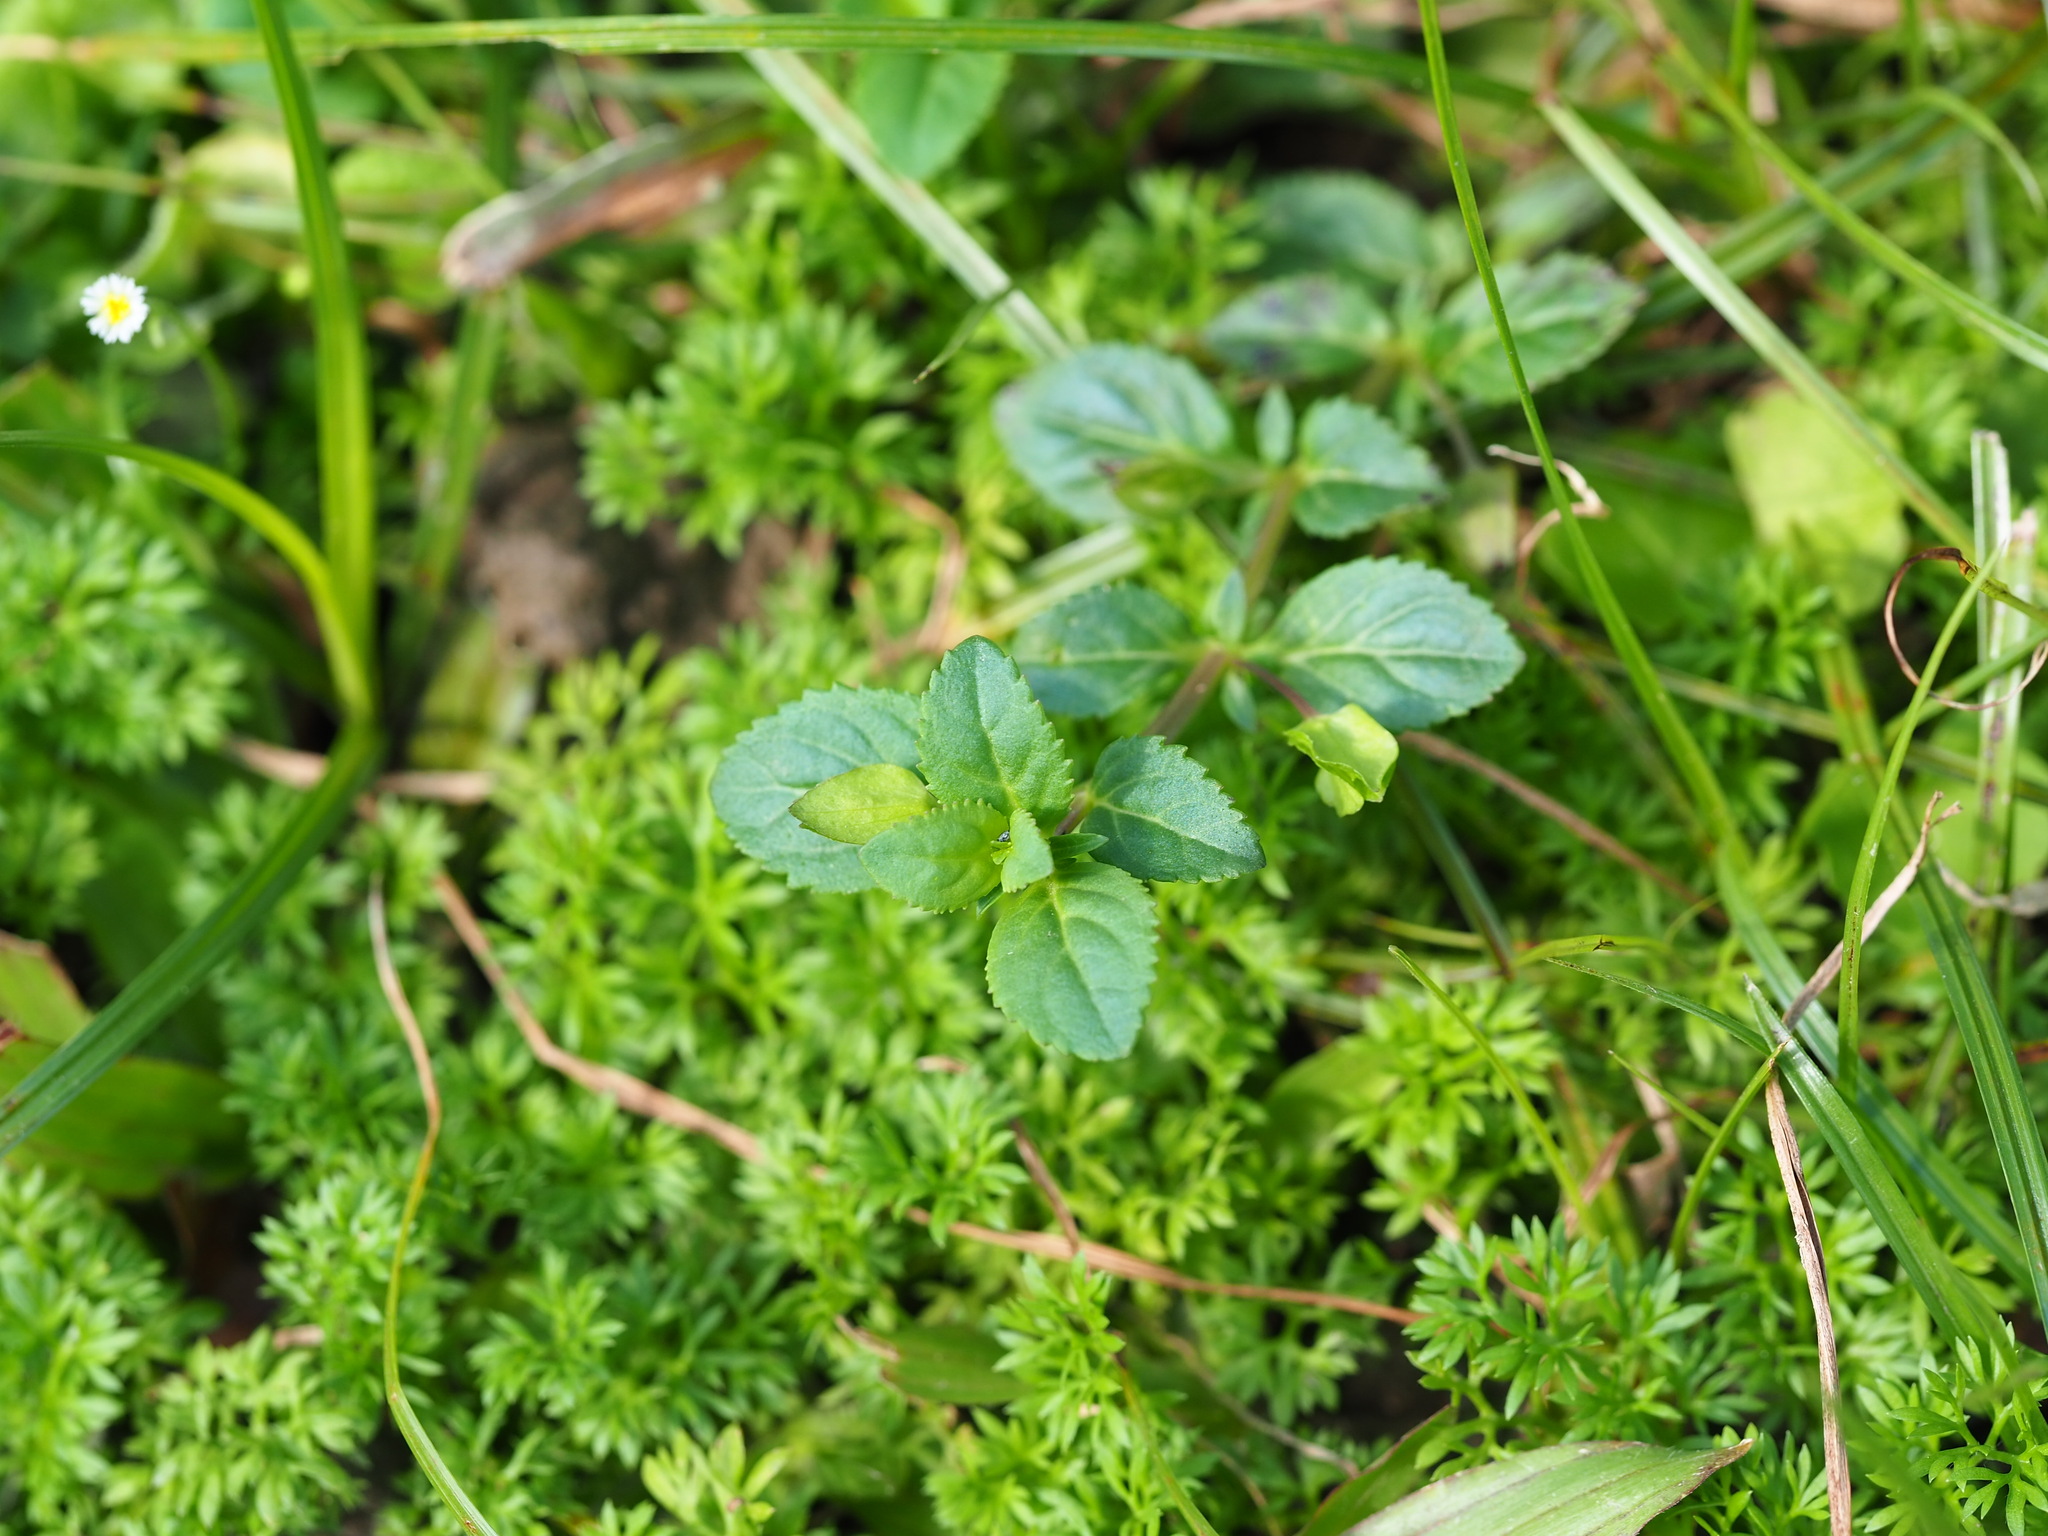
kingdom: Plantae
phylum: Tracheophyta
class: Magnoliopsida
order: Lamiales
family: Plantaginaceae
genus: Mecardonia
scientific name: Mecardonia procumbens
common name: Baby jump-up
